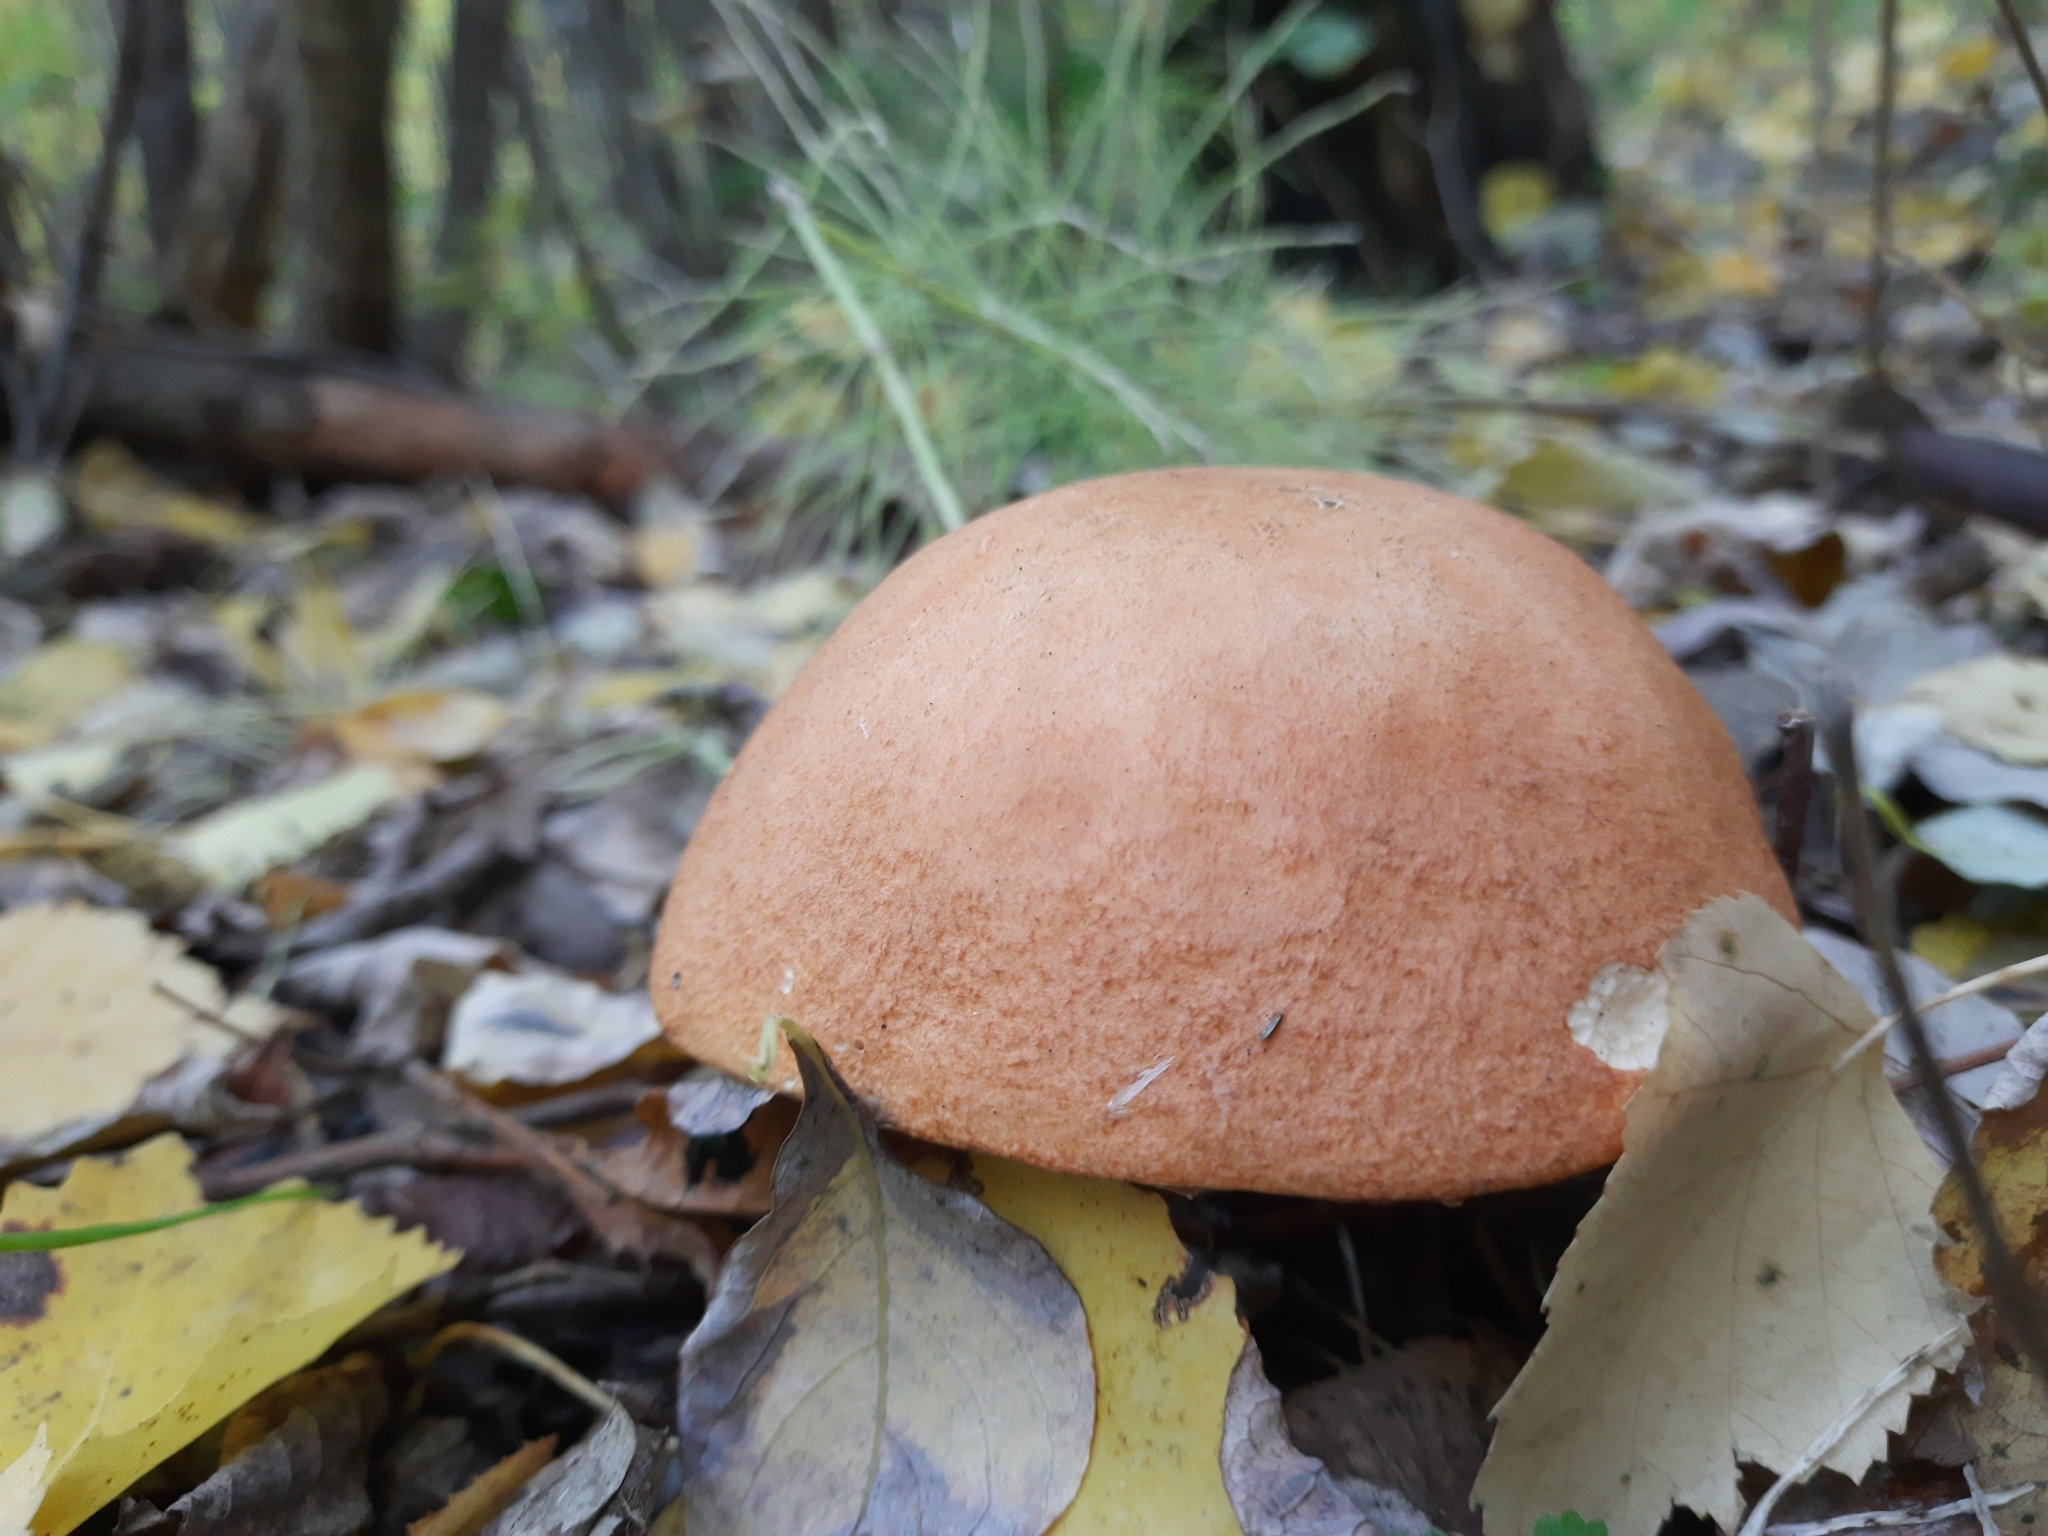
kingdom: Fungi
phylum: Basidiomycota
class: Agaricomycetes
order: Boletales
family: Boletaceae
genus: Leccinum
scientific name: Leccinum albostipitatum
